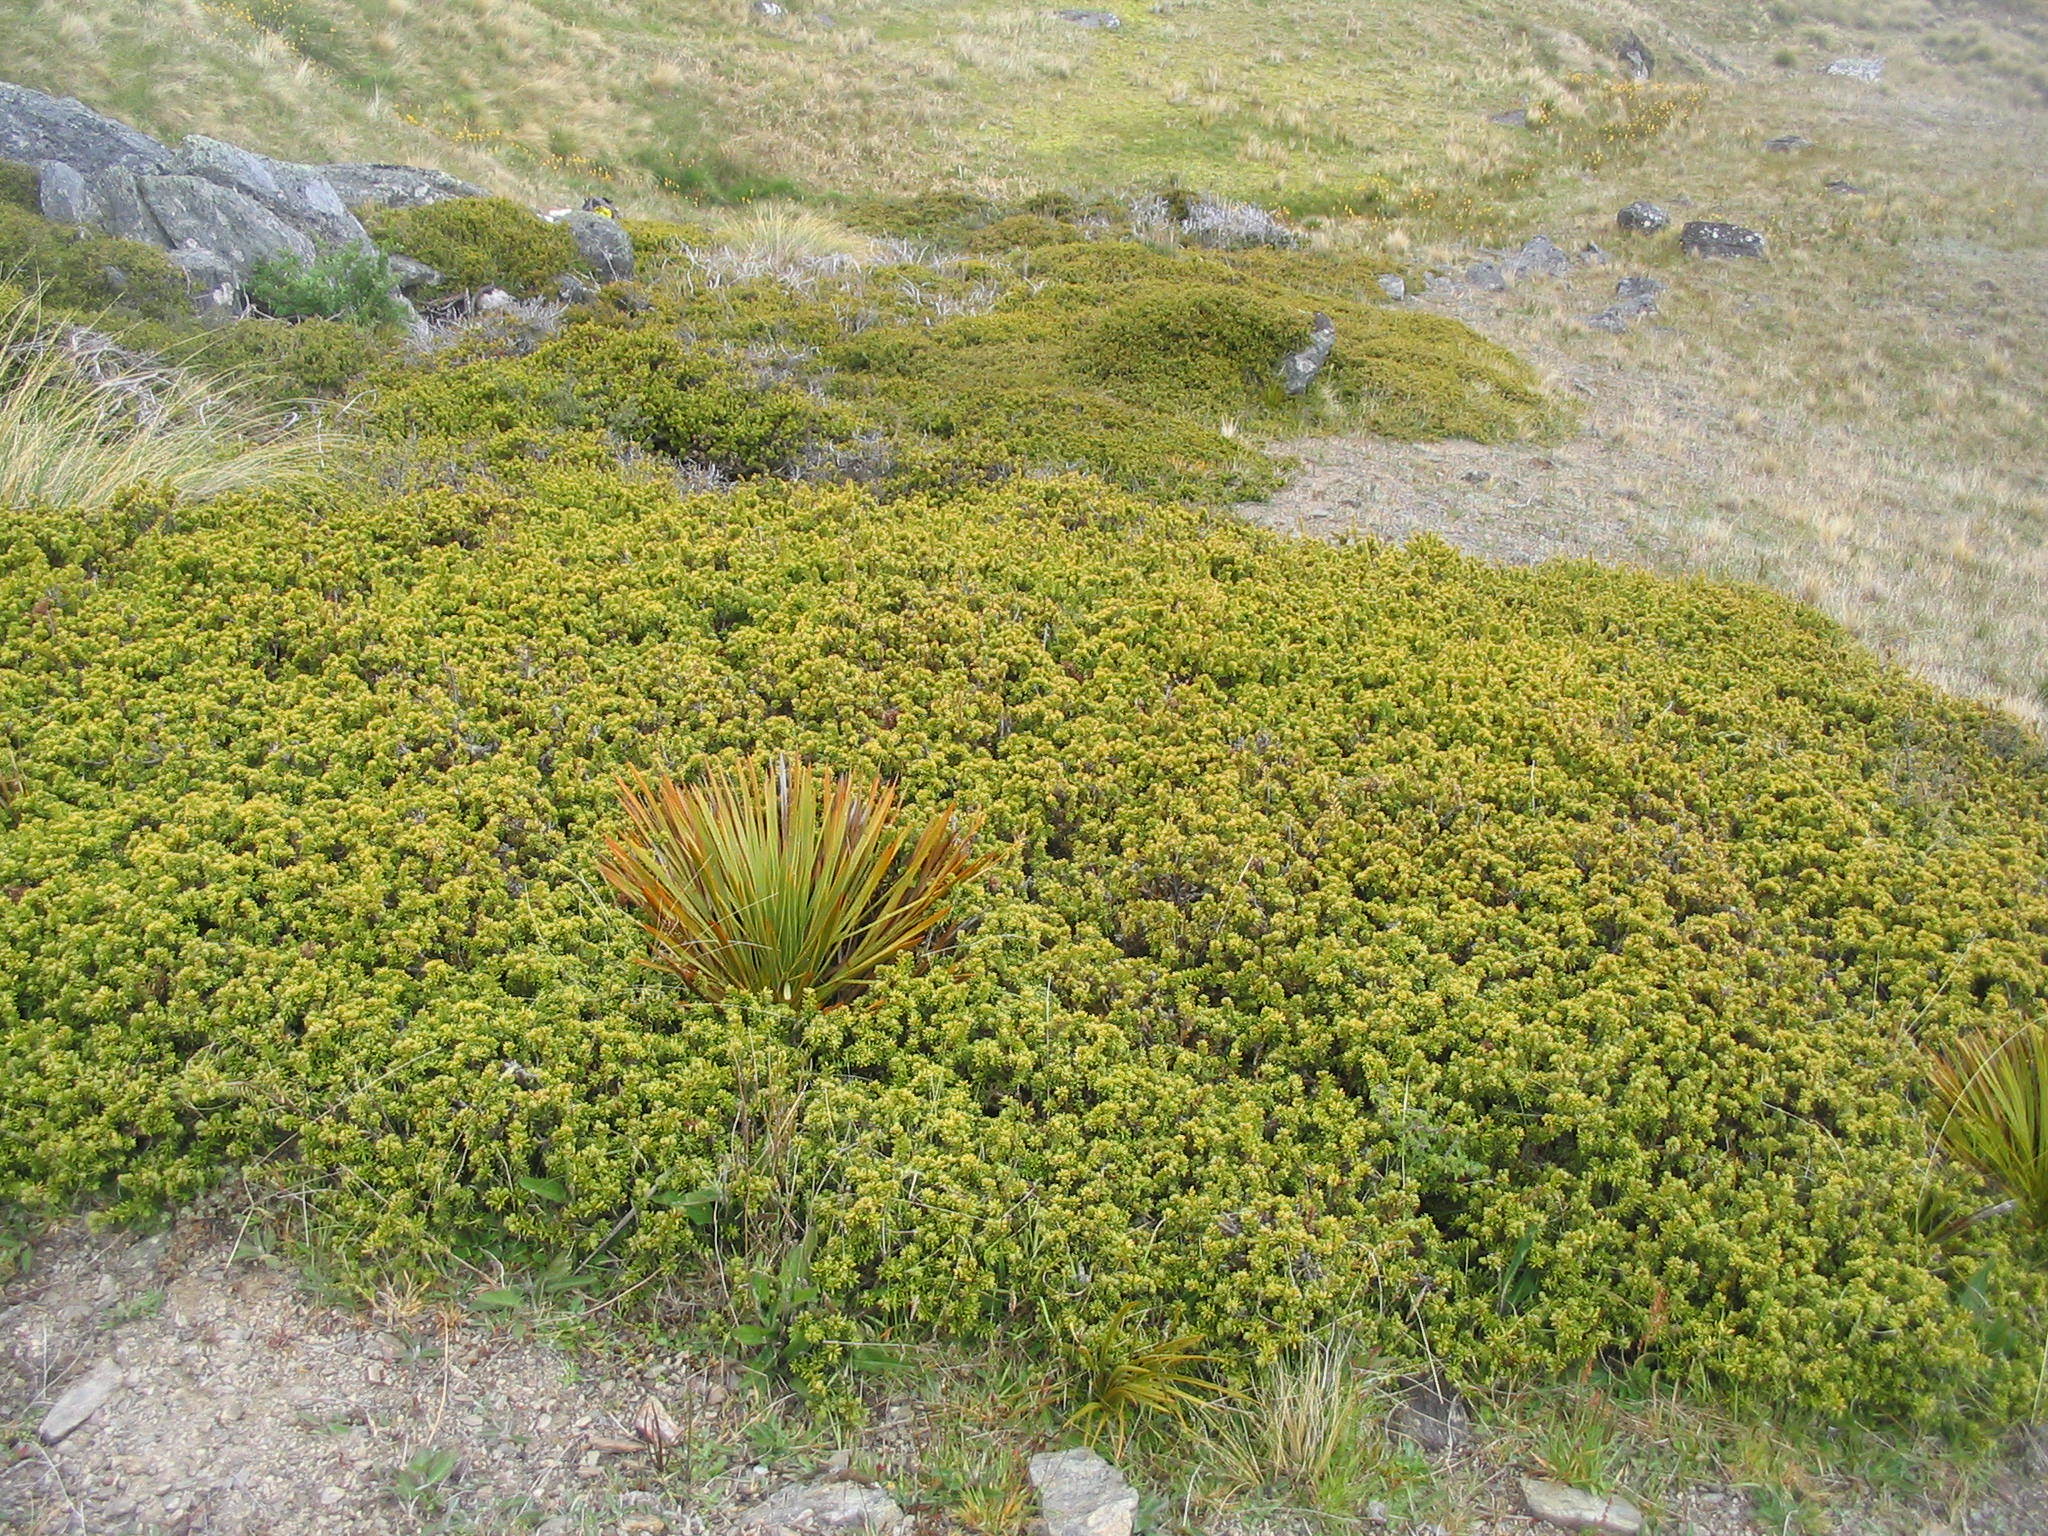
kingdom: Plantae
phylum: Tracheophyta
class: Pinopsida
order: Pinales
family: Podocarpaceae
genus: Podocarpus
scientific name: Podocarpus nivalis
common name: Alpine totara
